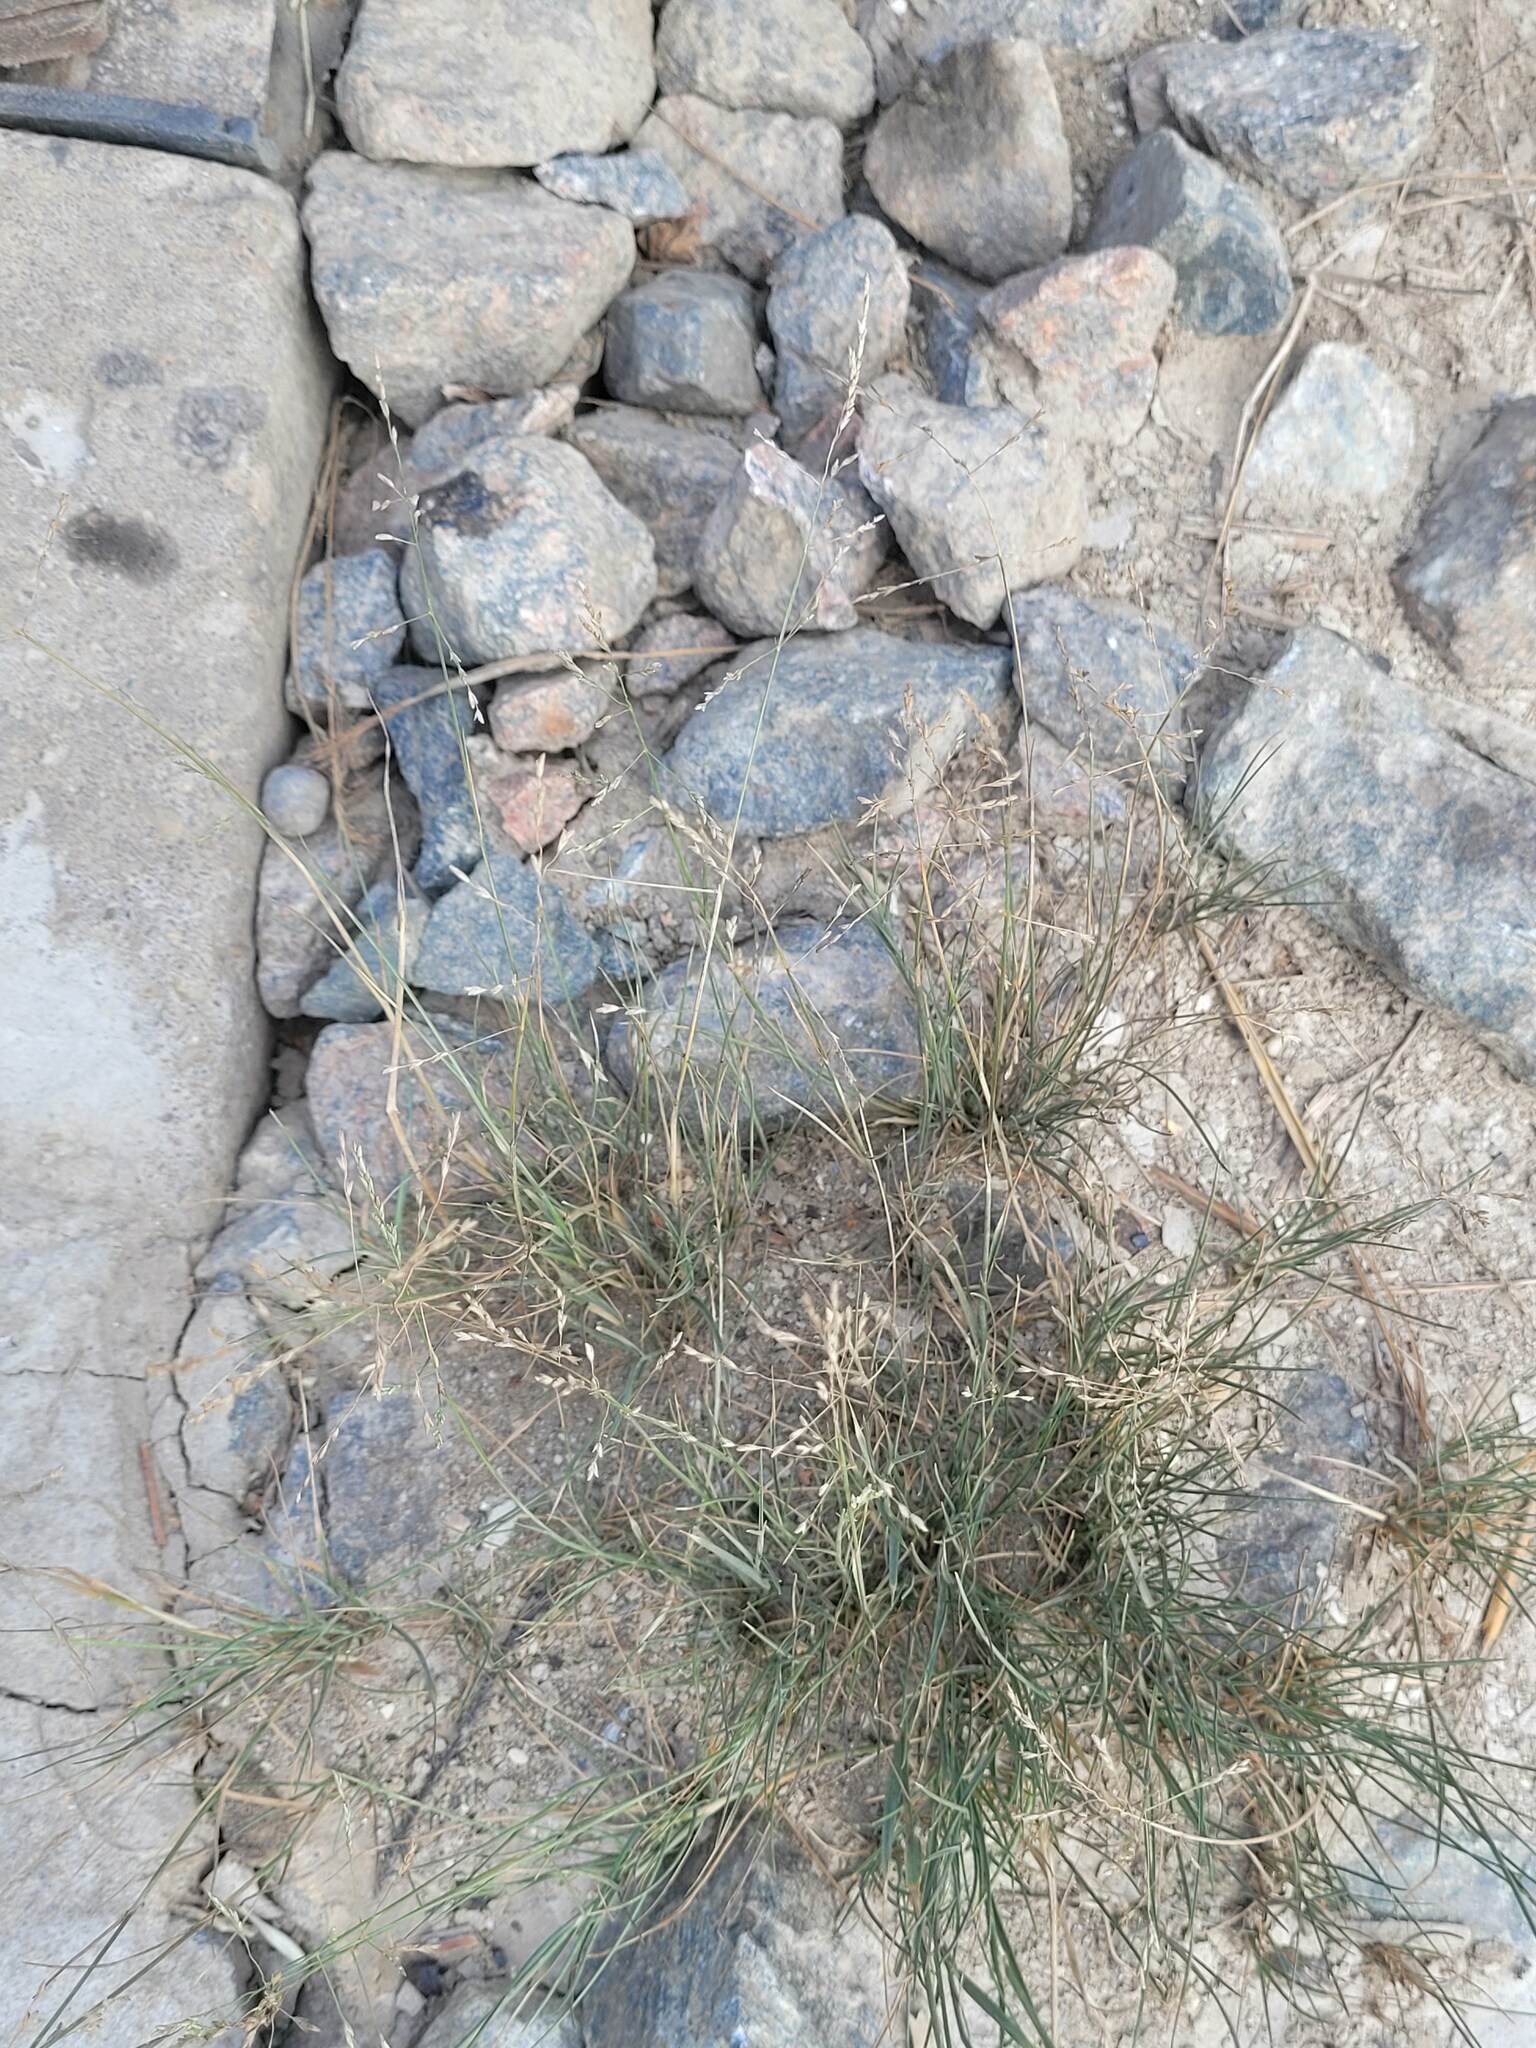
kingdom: Plantae
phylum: Tracheophyta
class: Liliopsida
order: Poales
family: Poaceae
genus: Puccinellia
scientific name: Puccinellia distans
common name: Weeping alkaligrass
